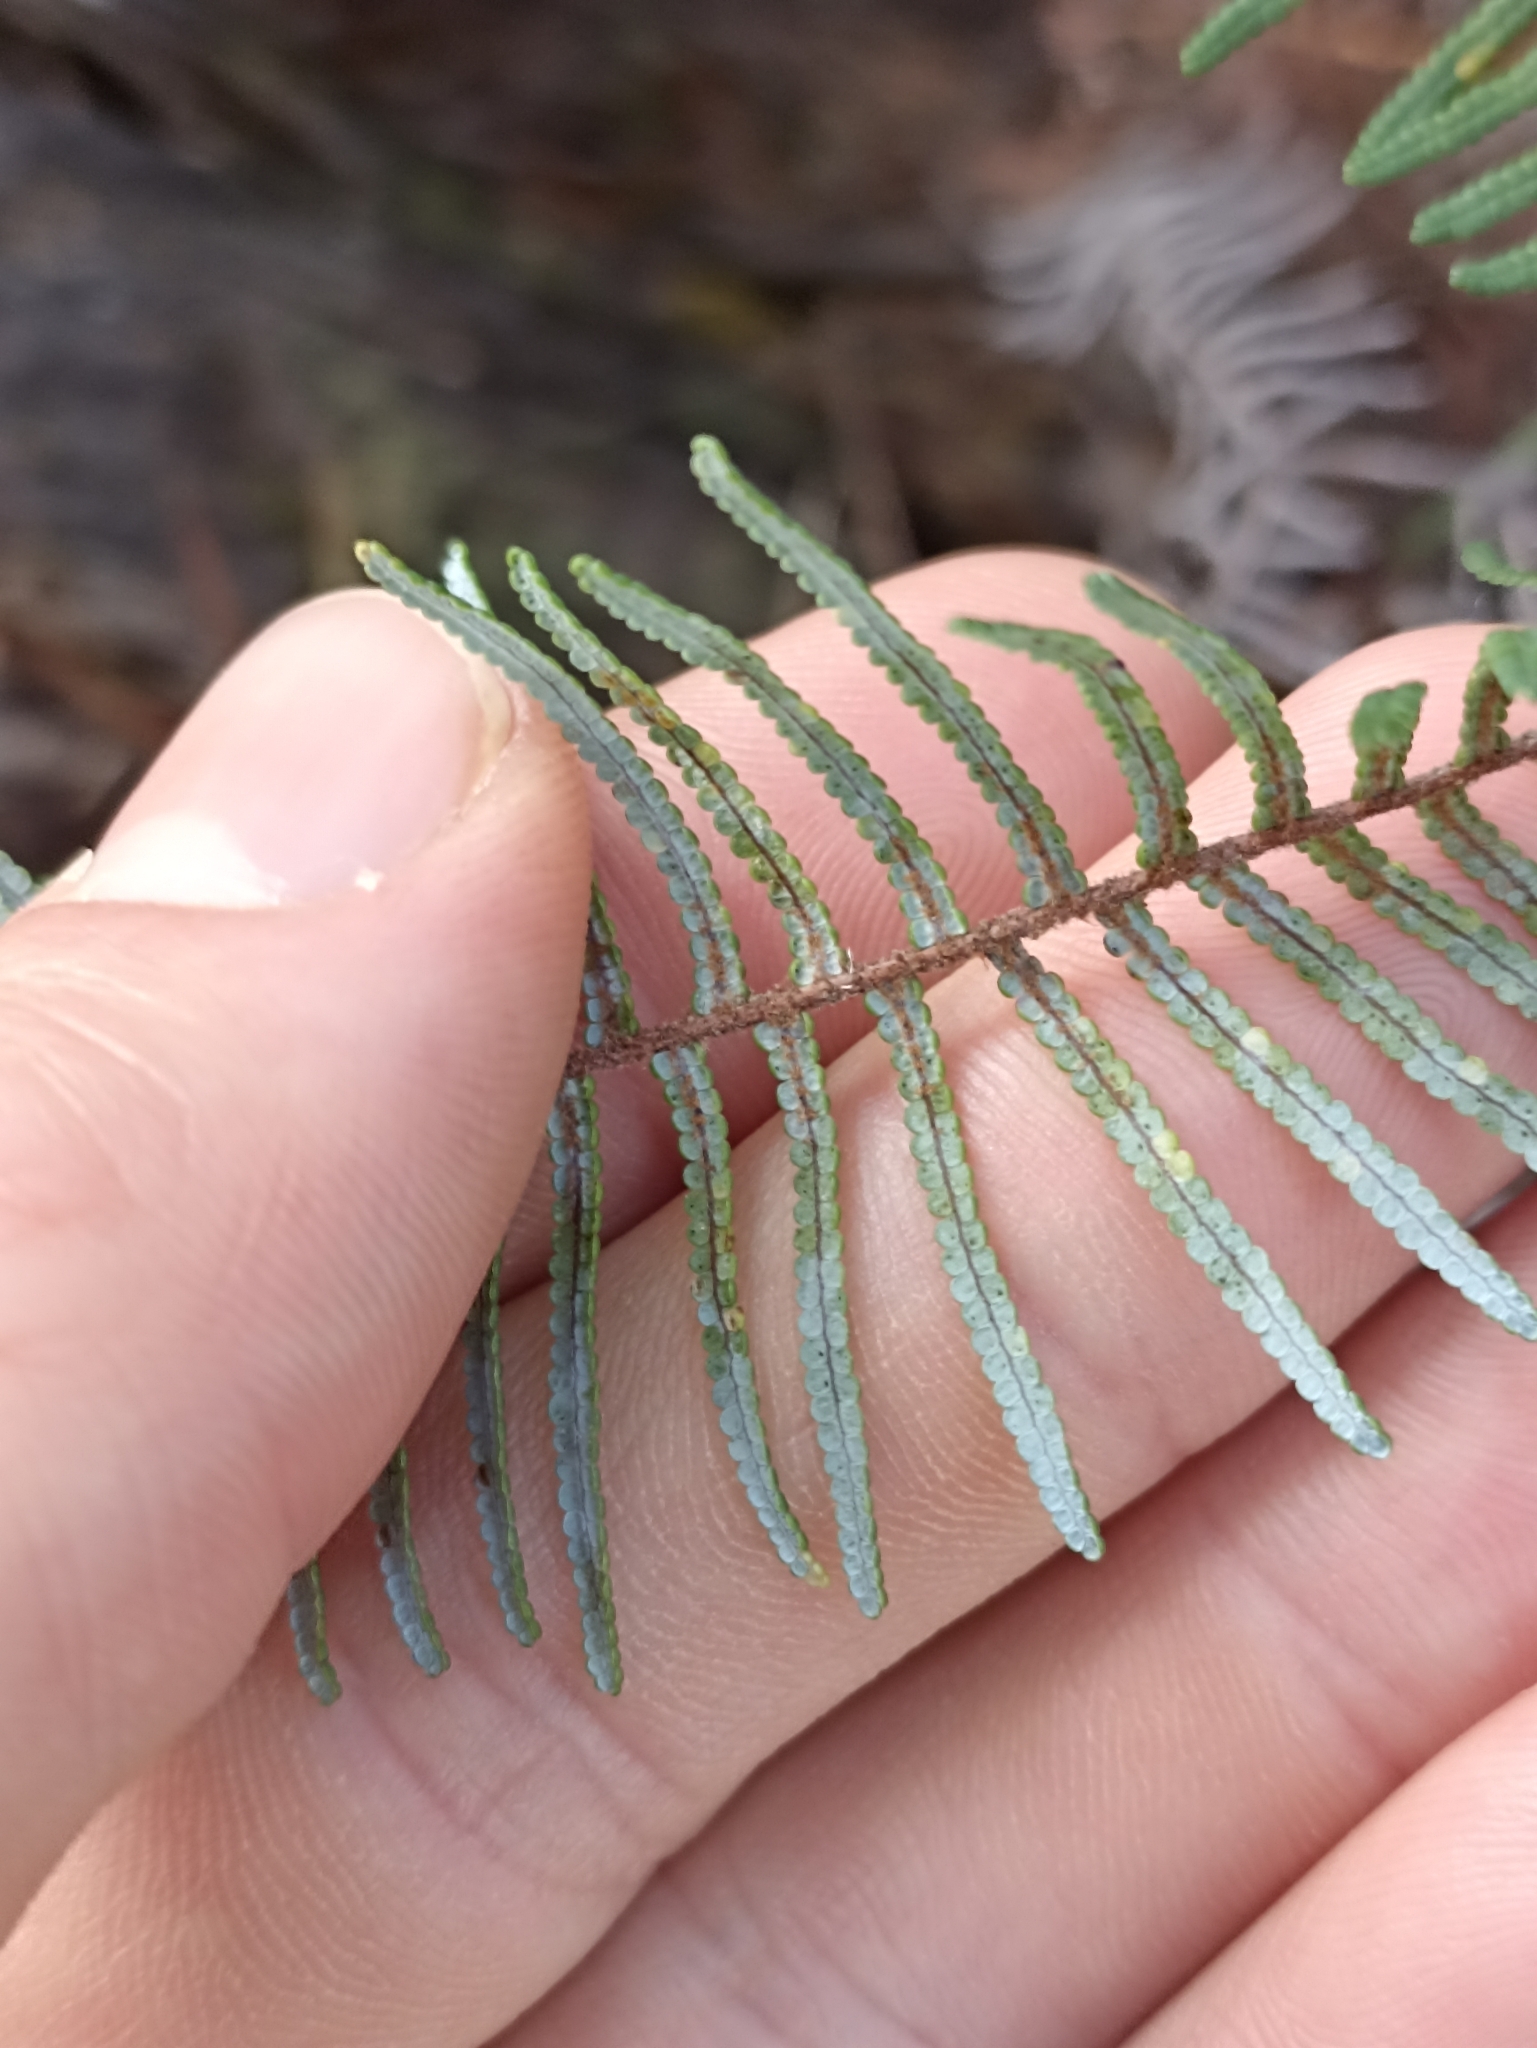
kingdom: Plantae
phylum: Tracheophyta
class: Polypodiopsida
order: Gleicheniales
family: Gleicheniaceae
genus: Gleichenia
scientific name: Gleichenia dicarpa
